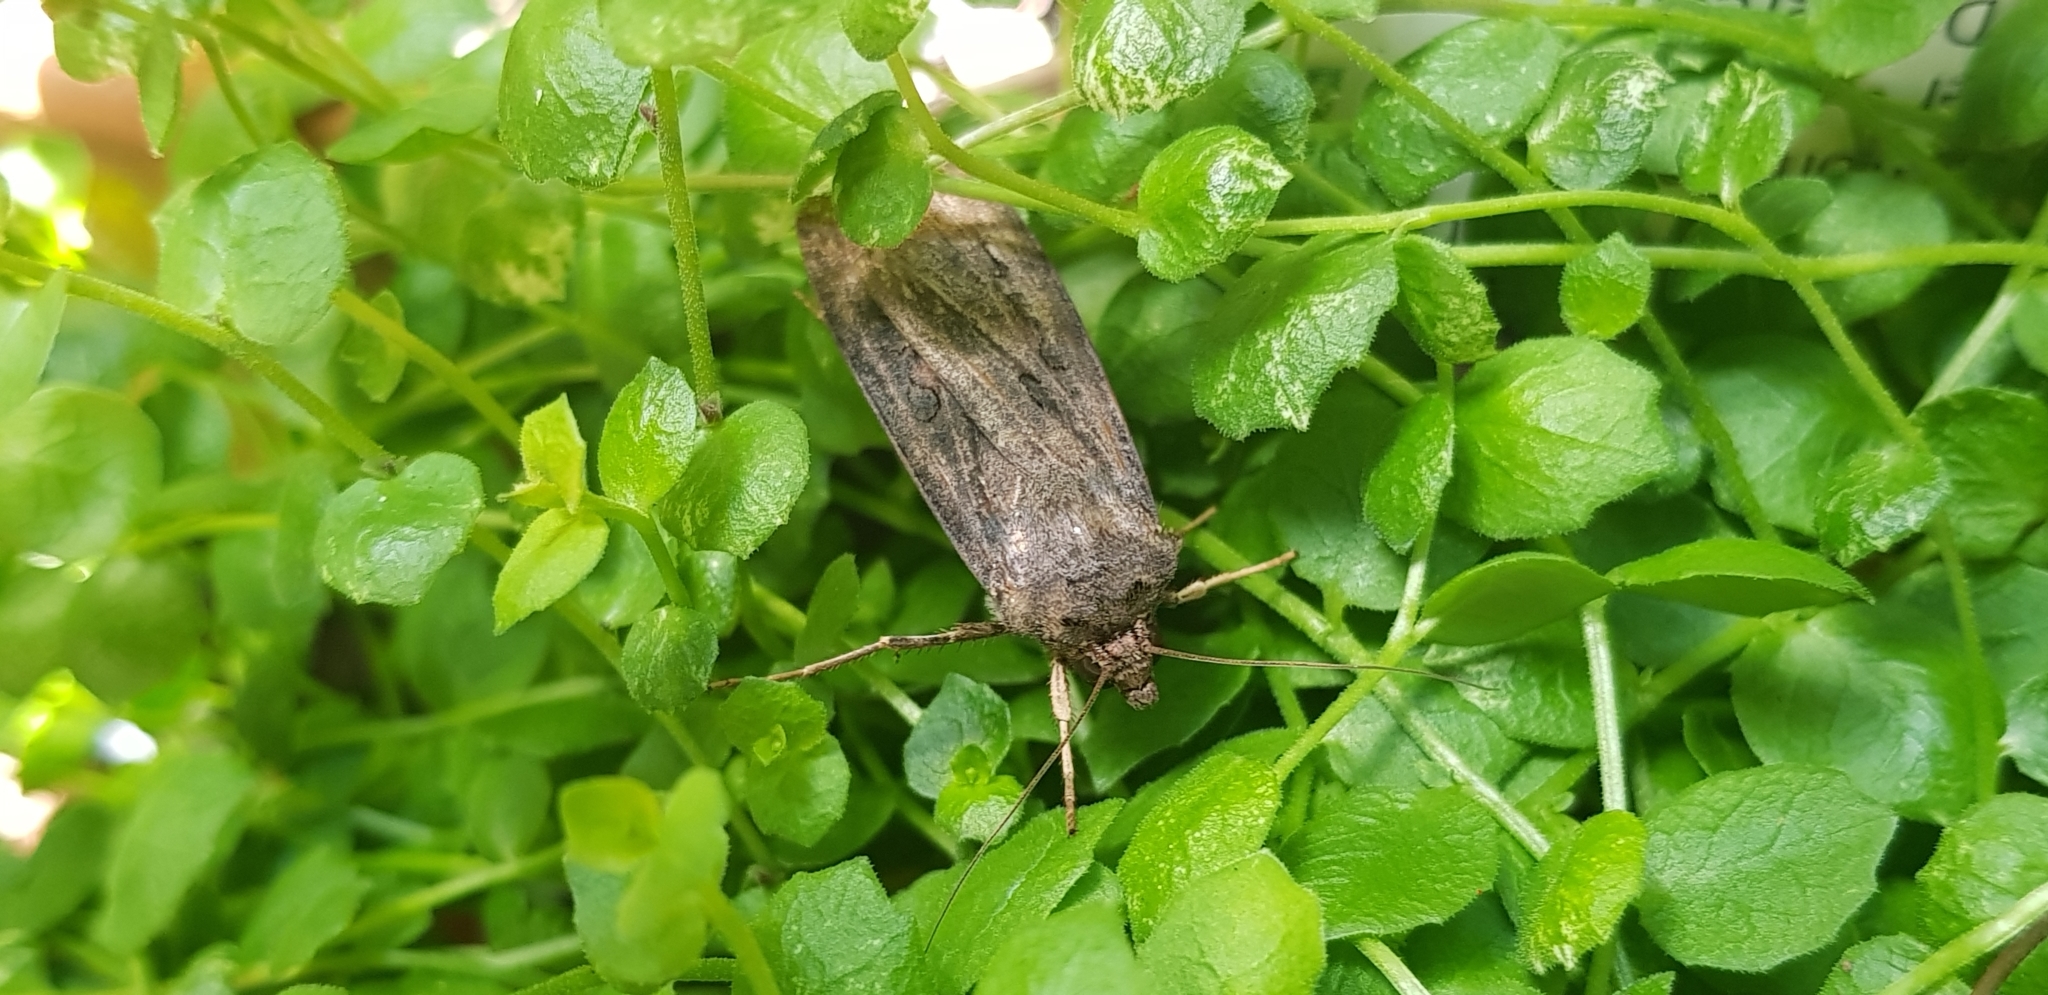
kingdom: Animalia
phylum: Arthropoda
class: Insecta
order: Lepidoptera
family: Noctuidae
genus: Agrotis
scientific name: Agrotis ipsilon
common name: Dark sword-grass
